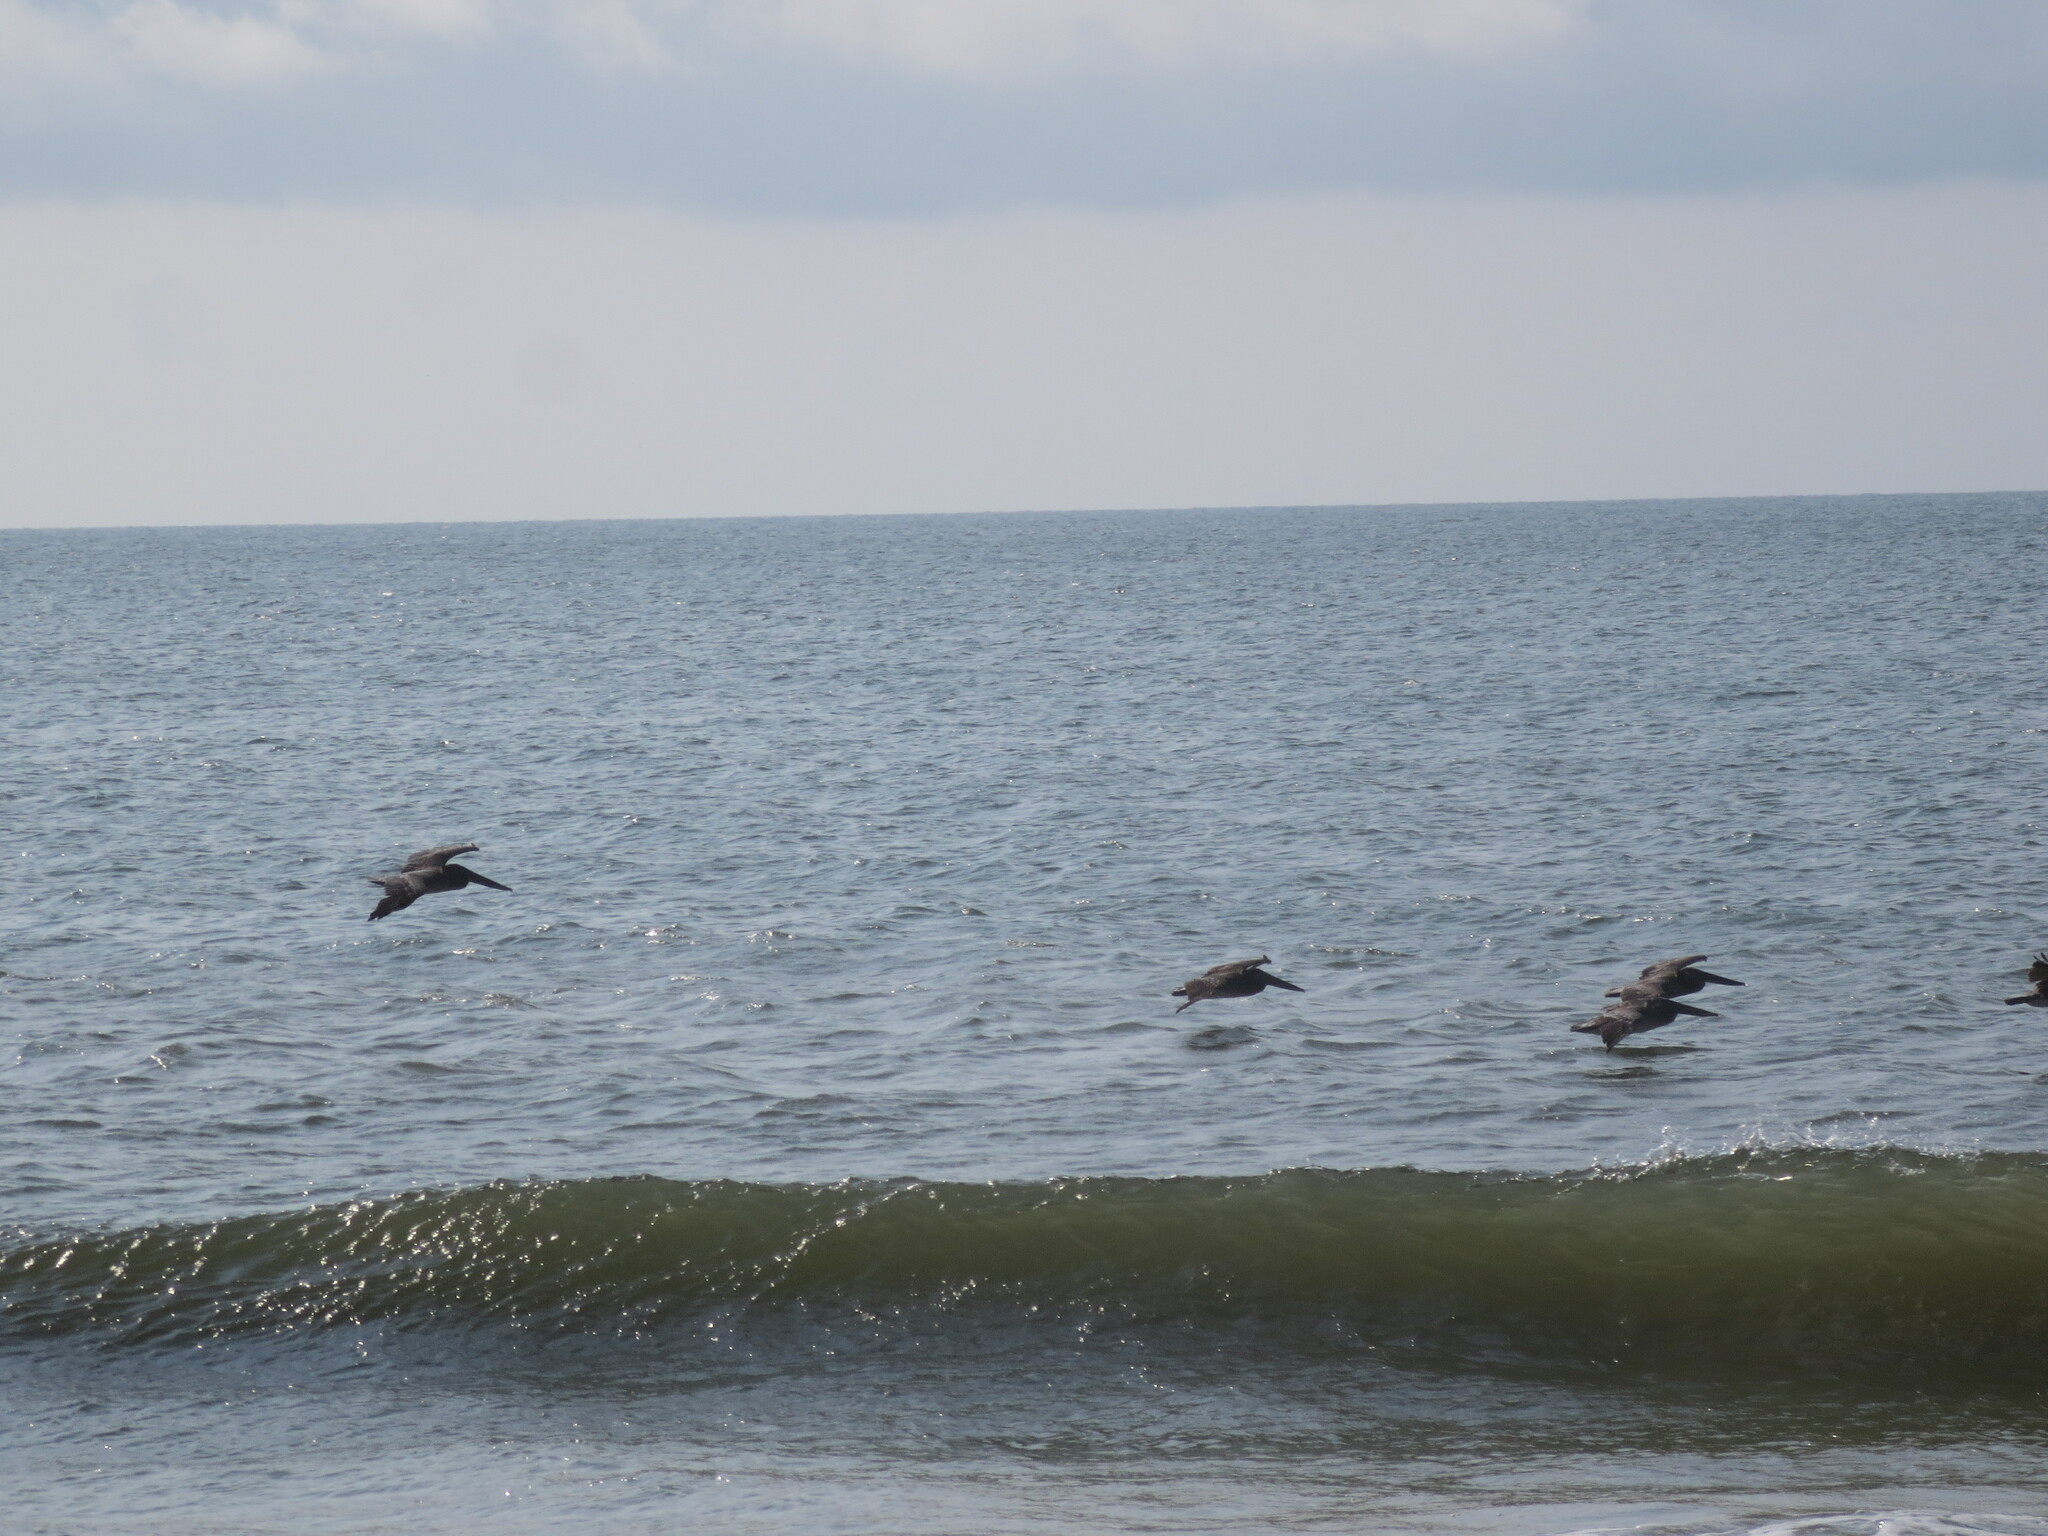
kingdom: Animalia
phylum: Chordata
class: Aves
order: Pelecaniformes
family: Pelecanidae
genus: Pelecanus
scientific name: Pelecanus occidentalis
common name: Brown pelican
